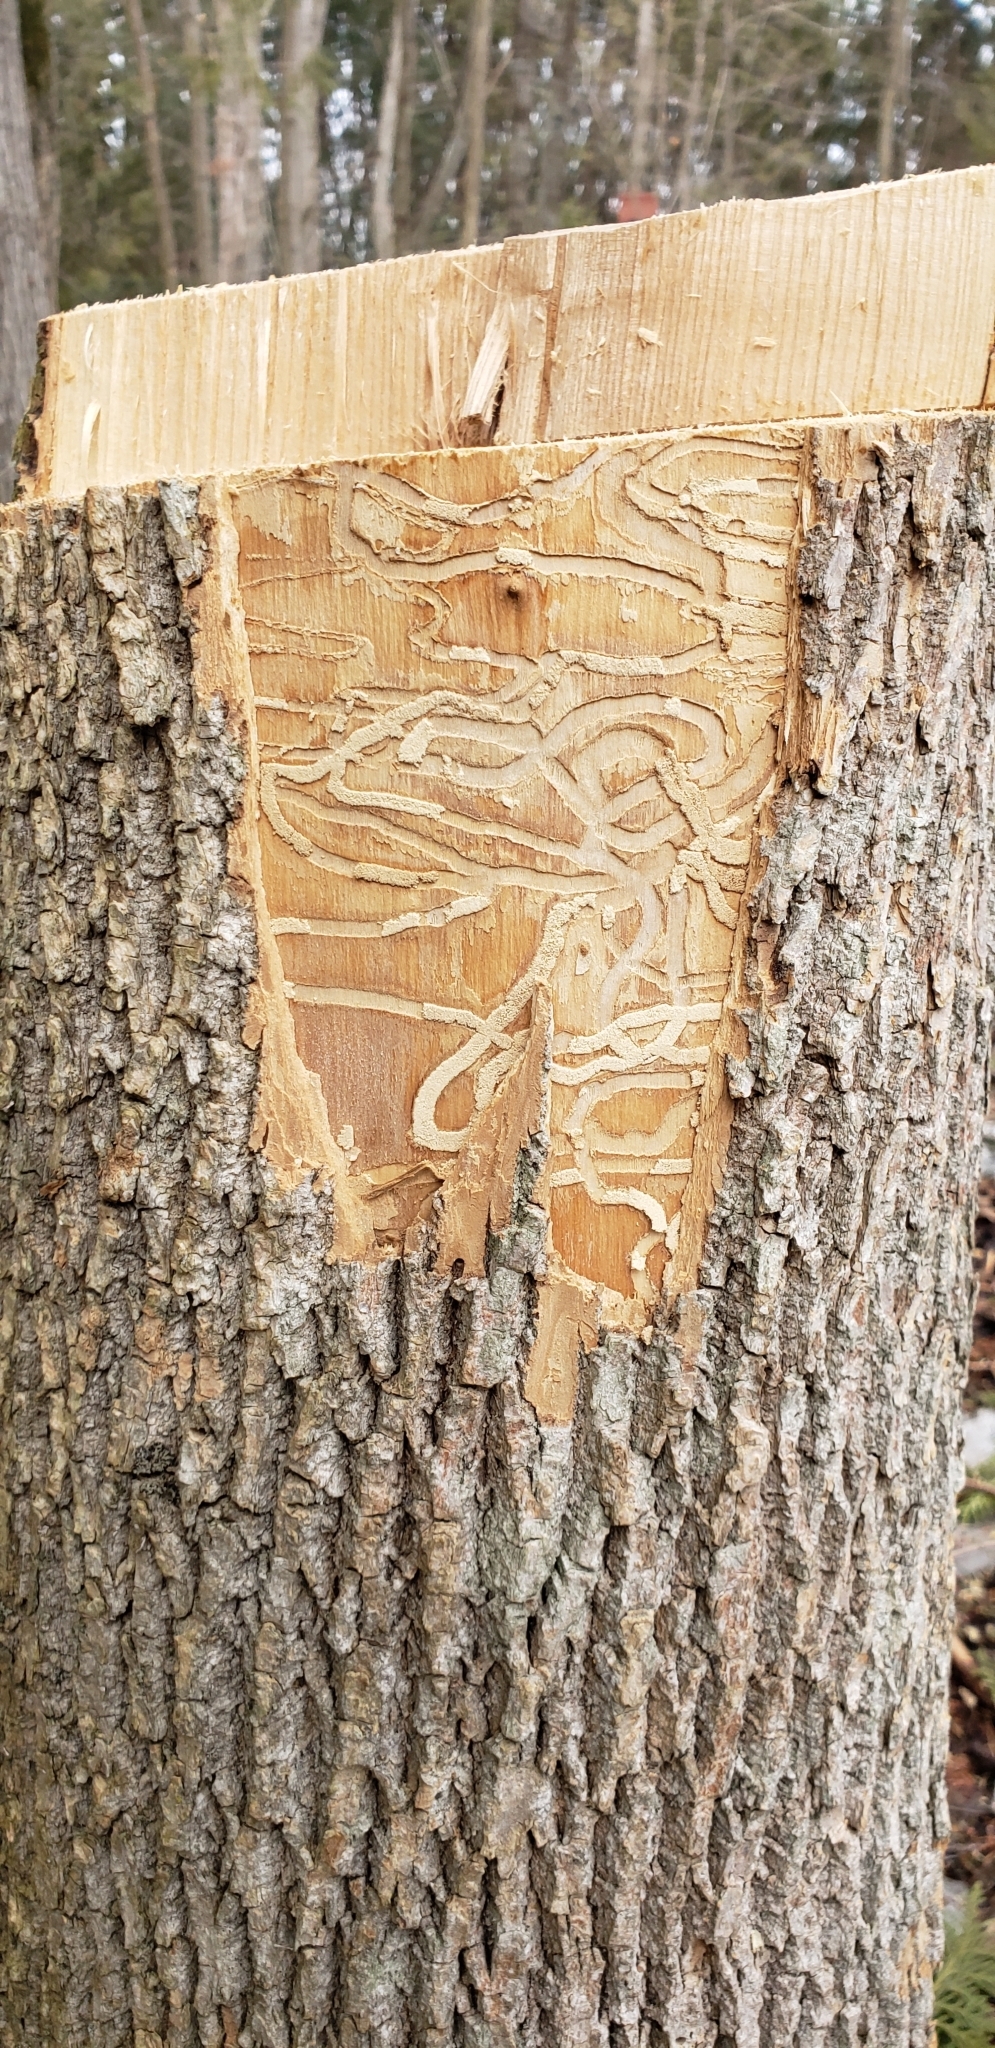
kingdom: Animalia
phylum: Arthropoda
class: Insecta
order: Coleoptera
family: Buprestidae
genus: Agrilus
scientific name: Agrilus planipennis
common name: Emerald ash borer
